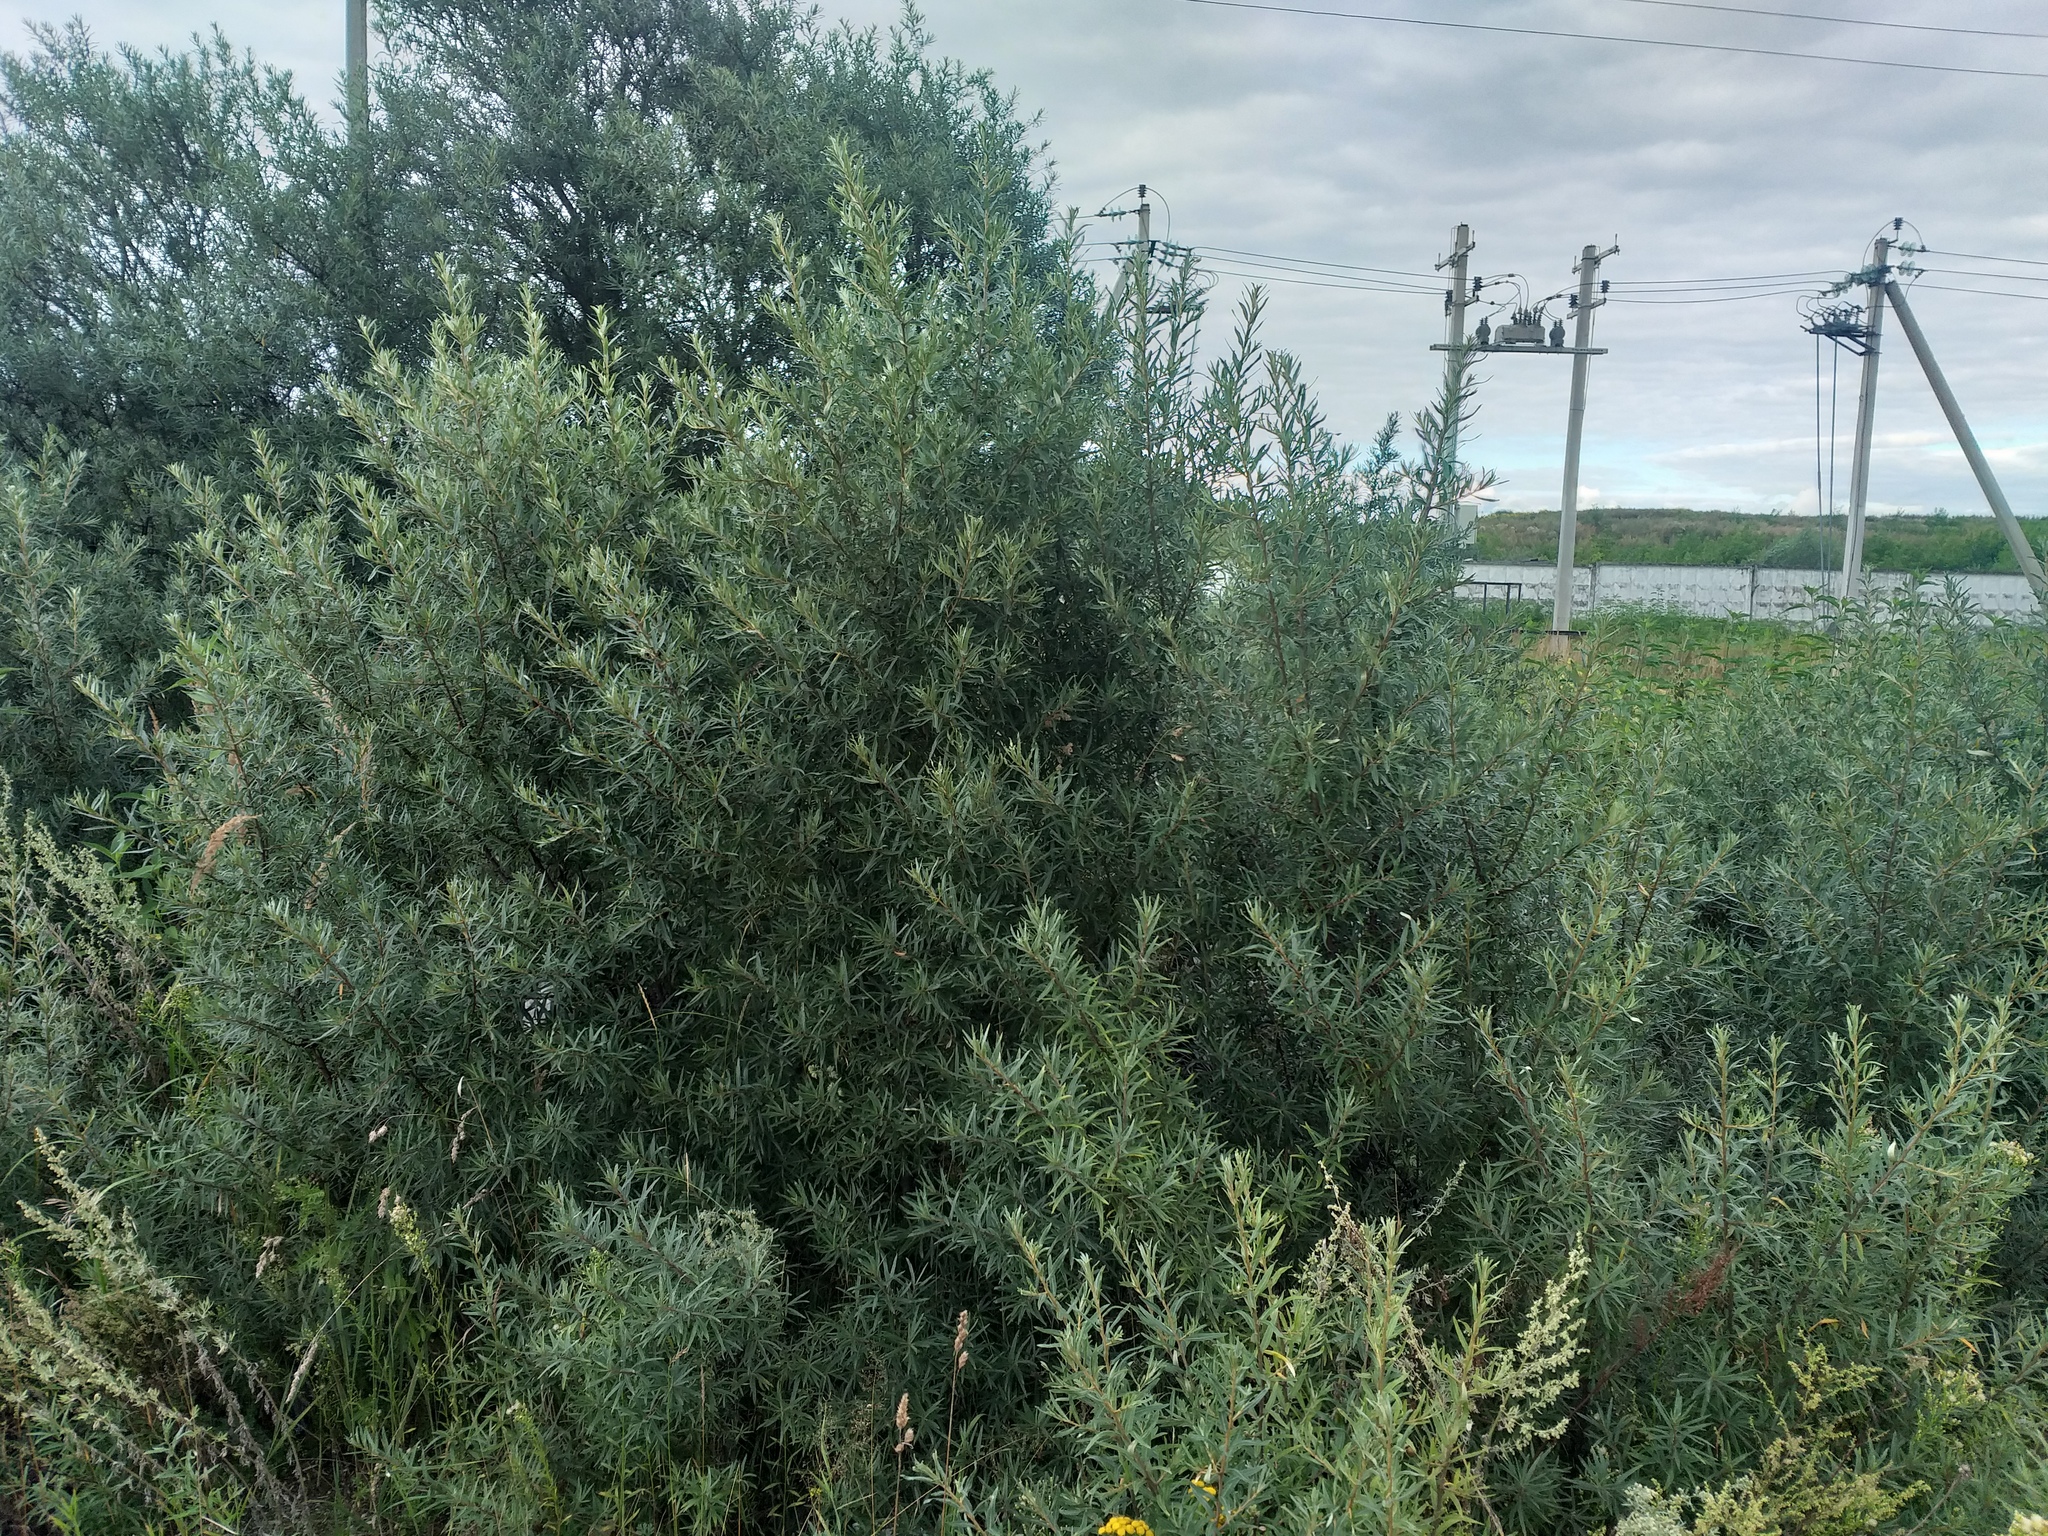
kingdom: Plantae
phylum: Tracheophyta
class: Magnoliopsida
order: Rosales
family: Elaeagnaceae
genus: Hippophae
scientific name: Hippophae rhamnoides
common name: Sea-buckthorn
